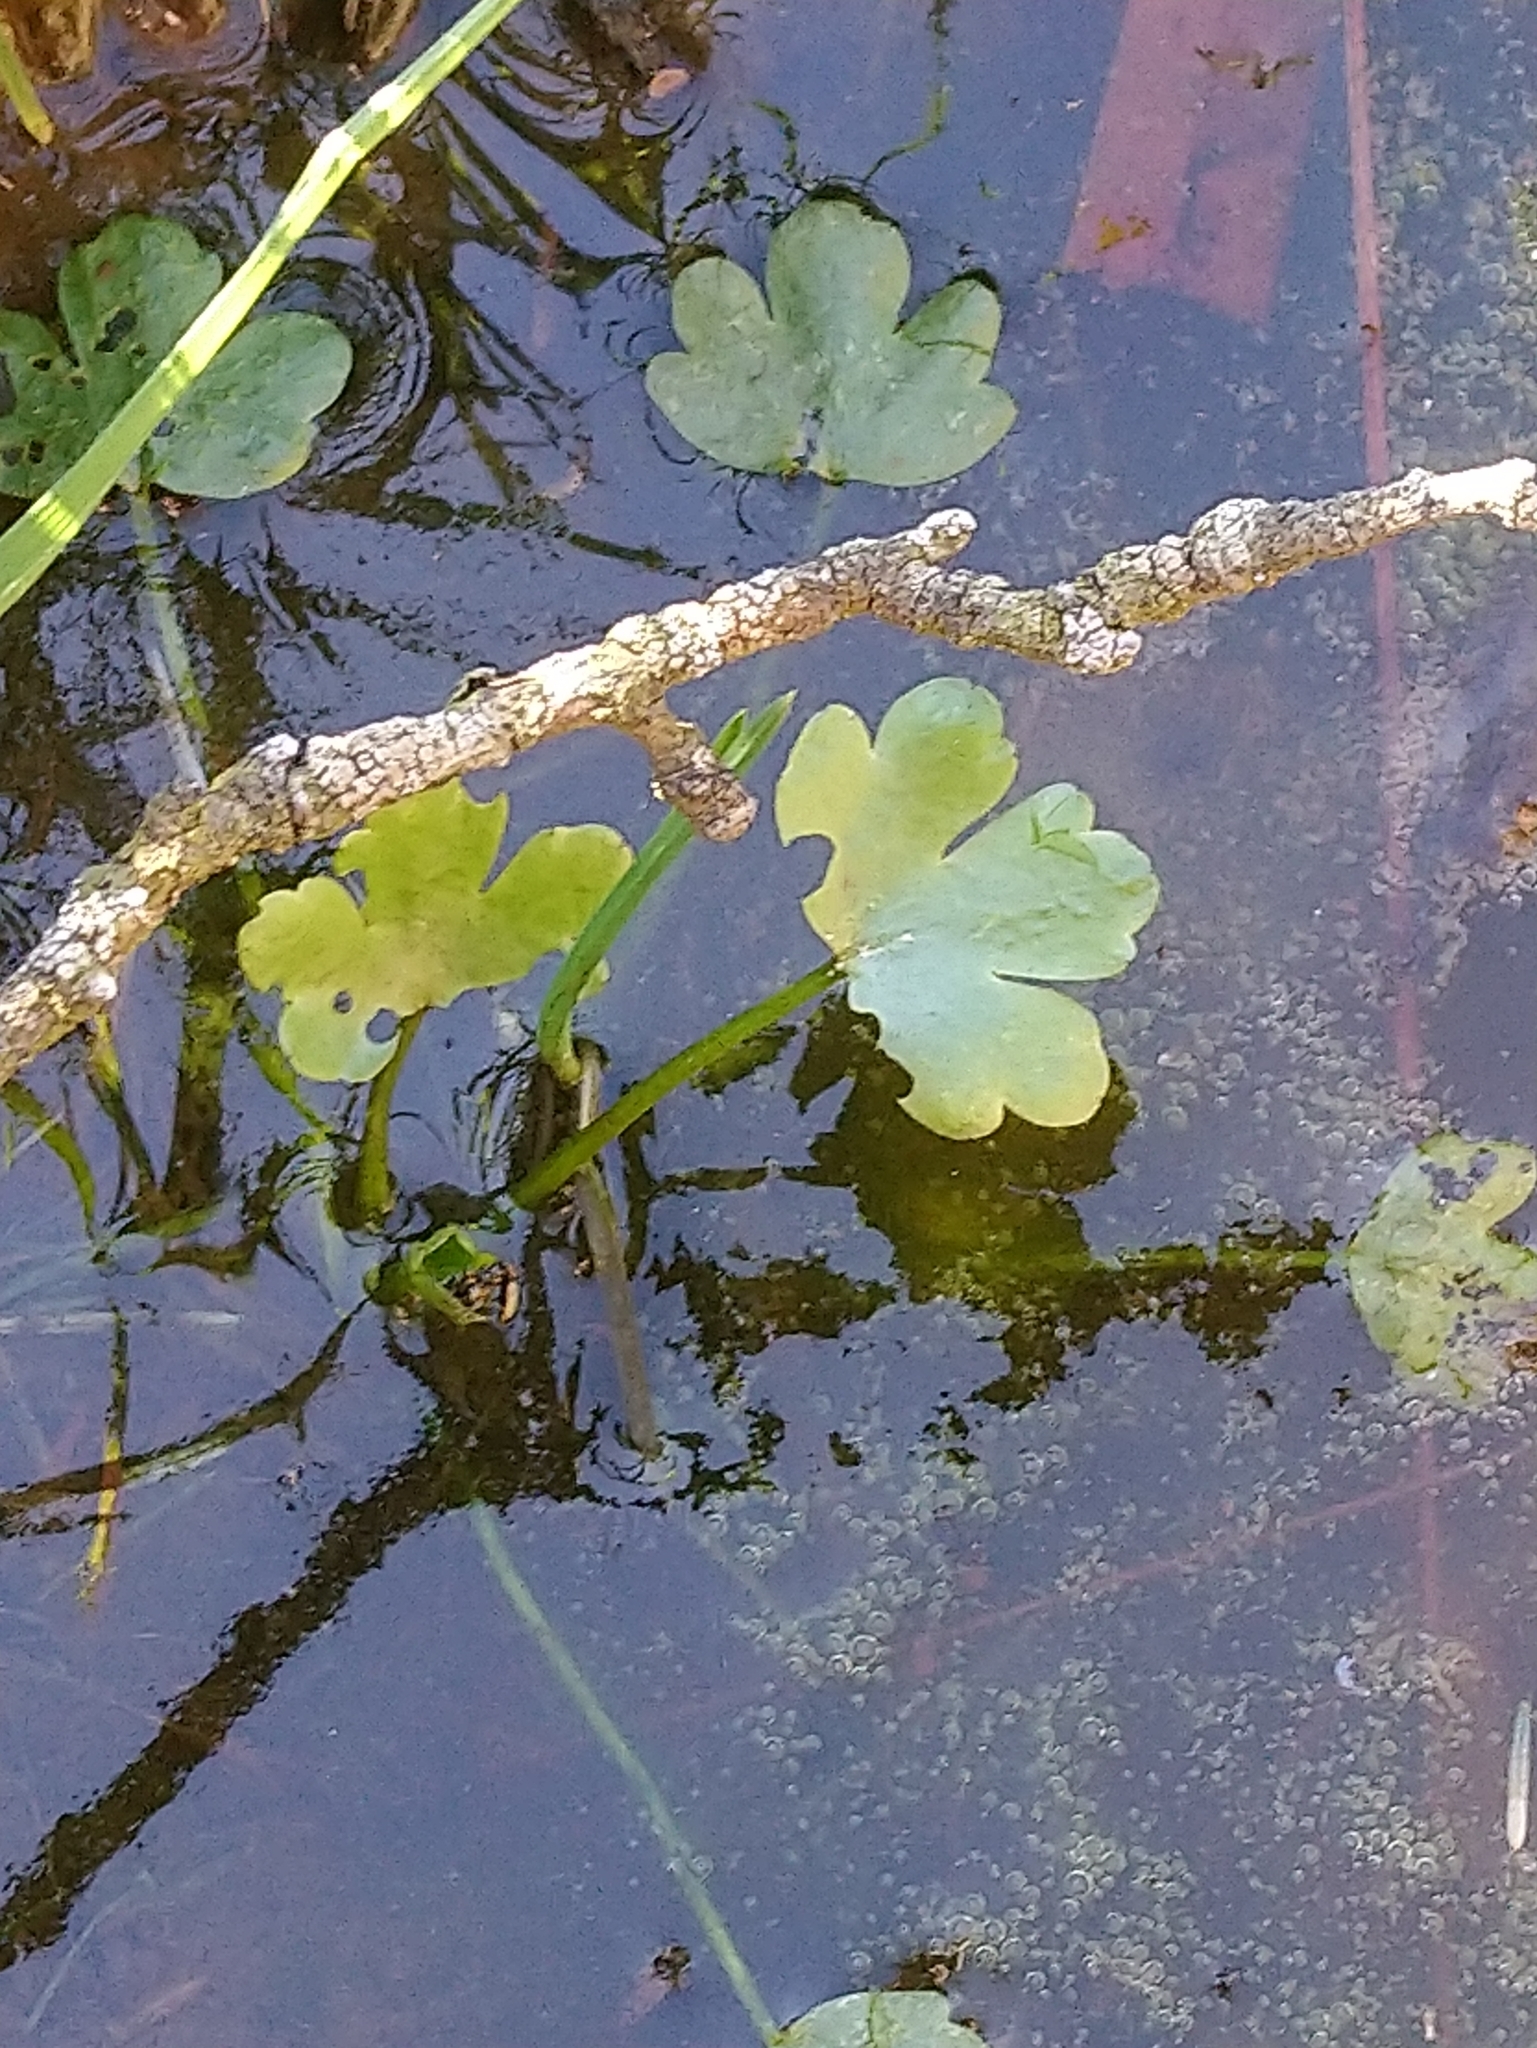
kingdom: Plantae
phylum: Tracheophyta
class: Magnoliopsida
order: Ranunculales
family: Ranunculaceae
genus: Ranunculus
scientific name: Ranunculus sceleratus
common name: Celery-leaved buttercup
